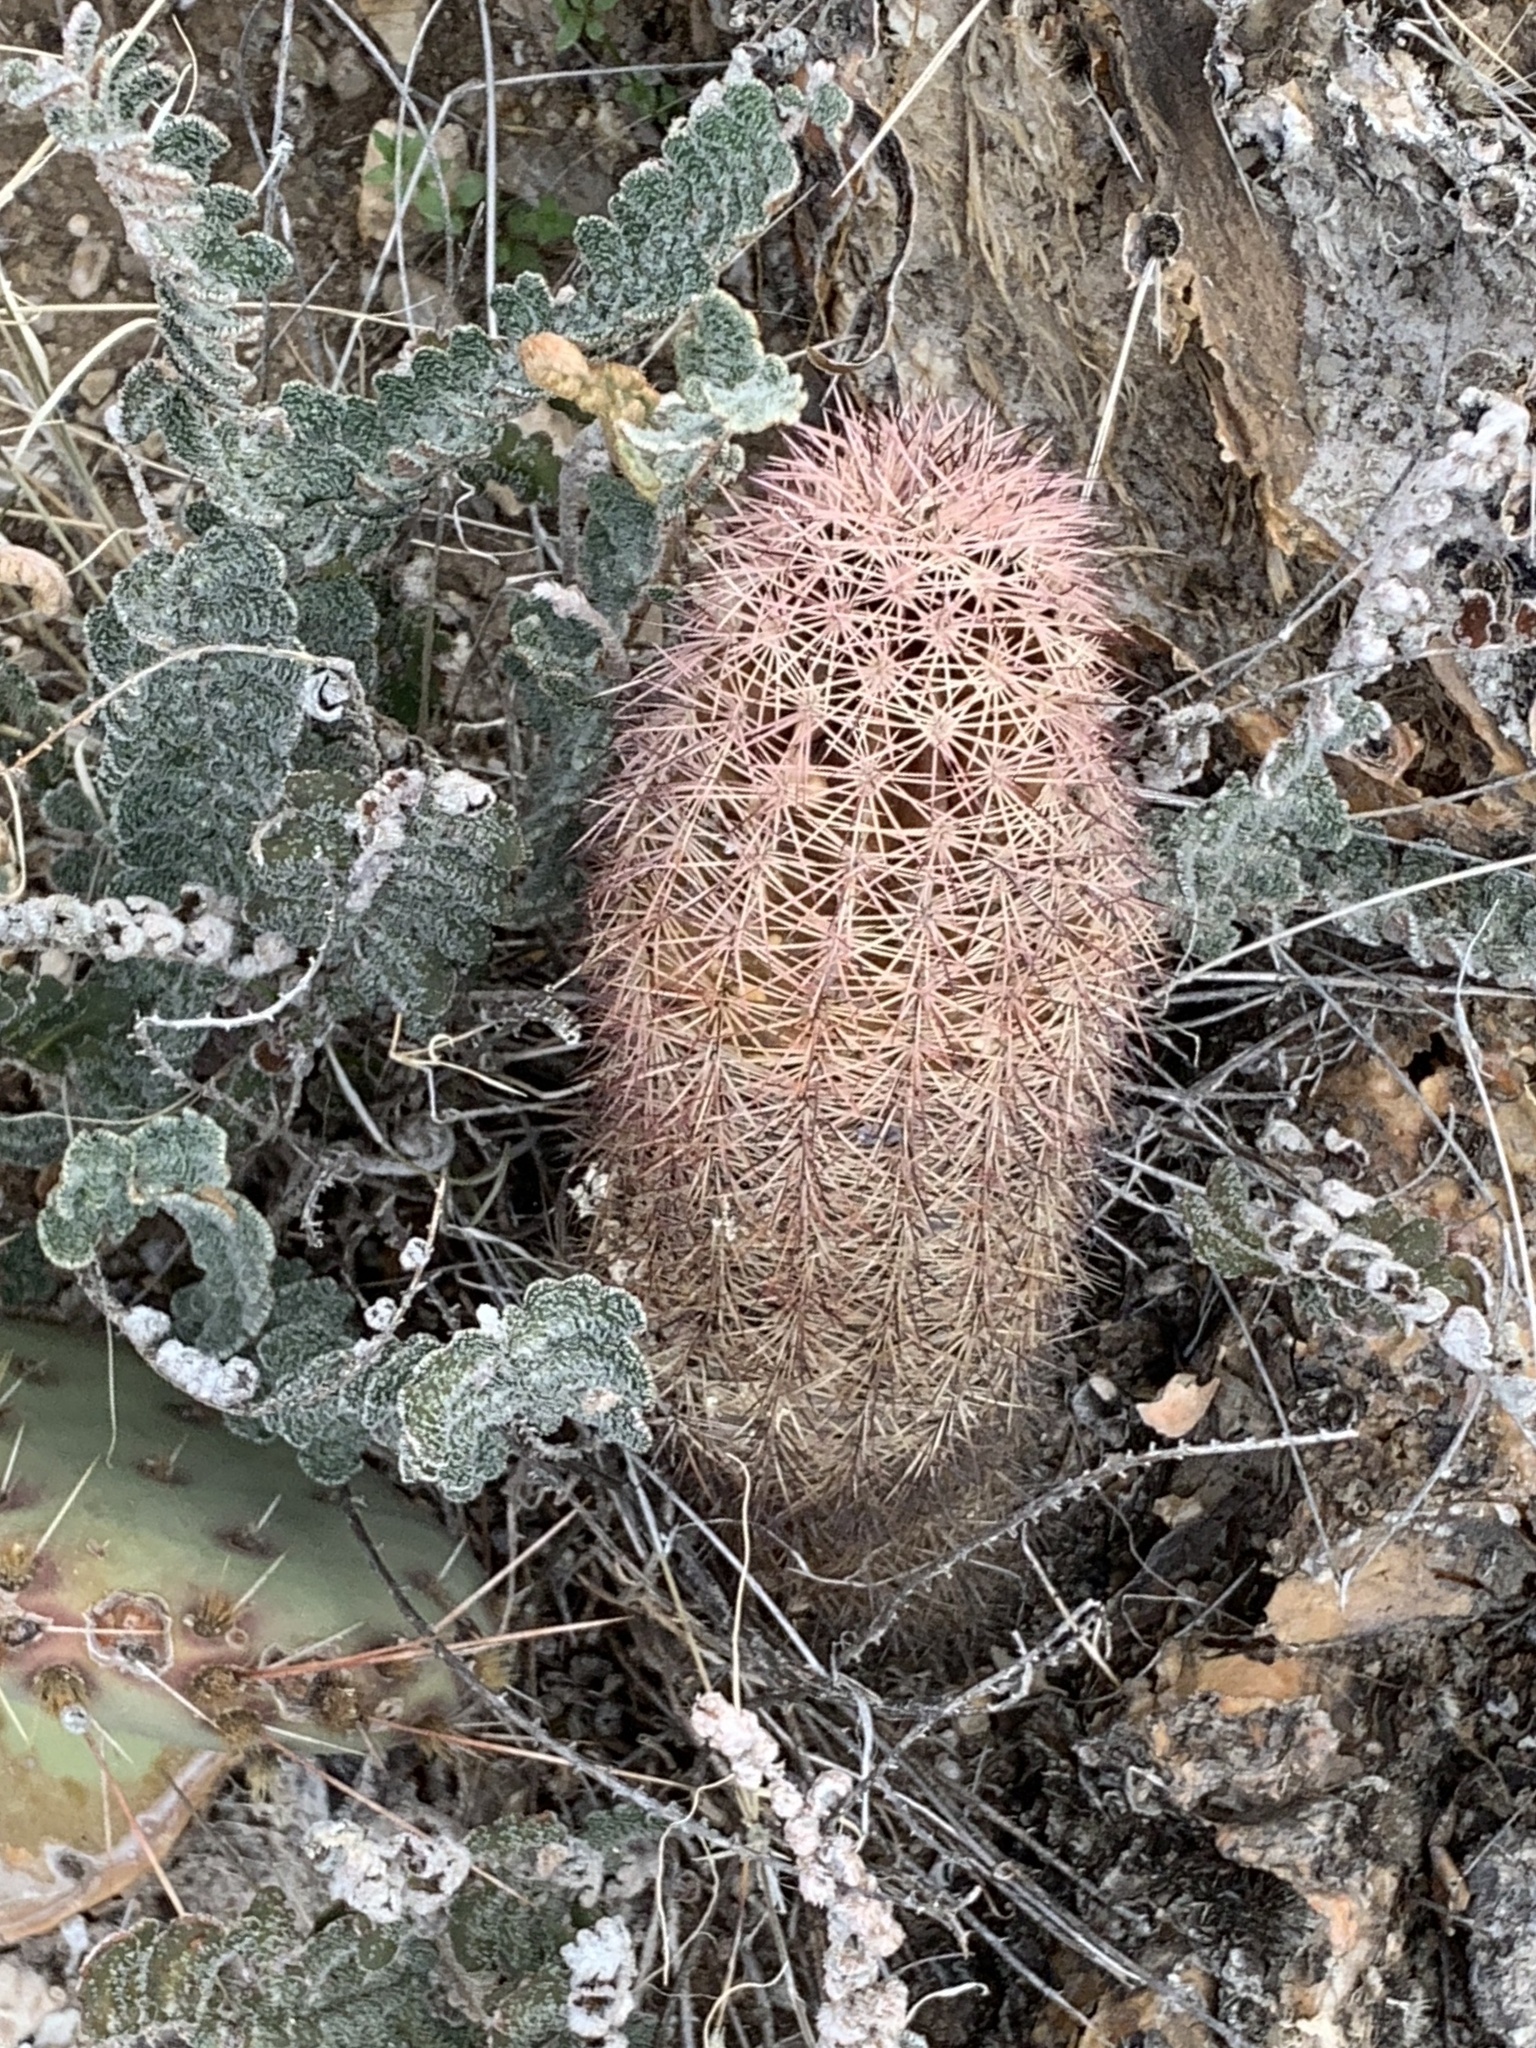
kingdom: Plantae
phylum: Tracheophyta
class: Magnoliopsida
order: Caryophyllales
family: Cactaceae
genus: Echinocereus
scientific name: Echinocereus dasyacanthus
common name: Spiny hedgehog cactus
